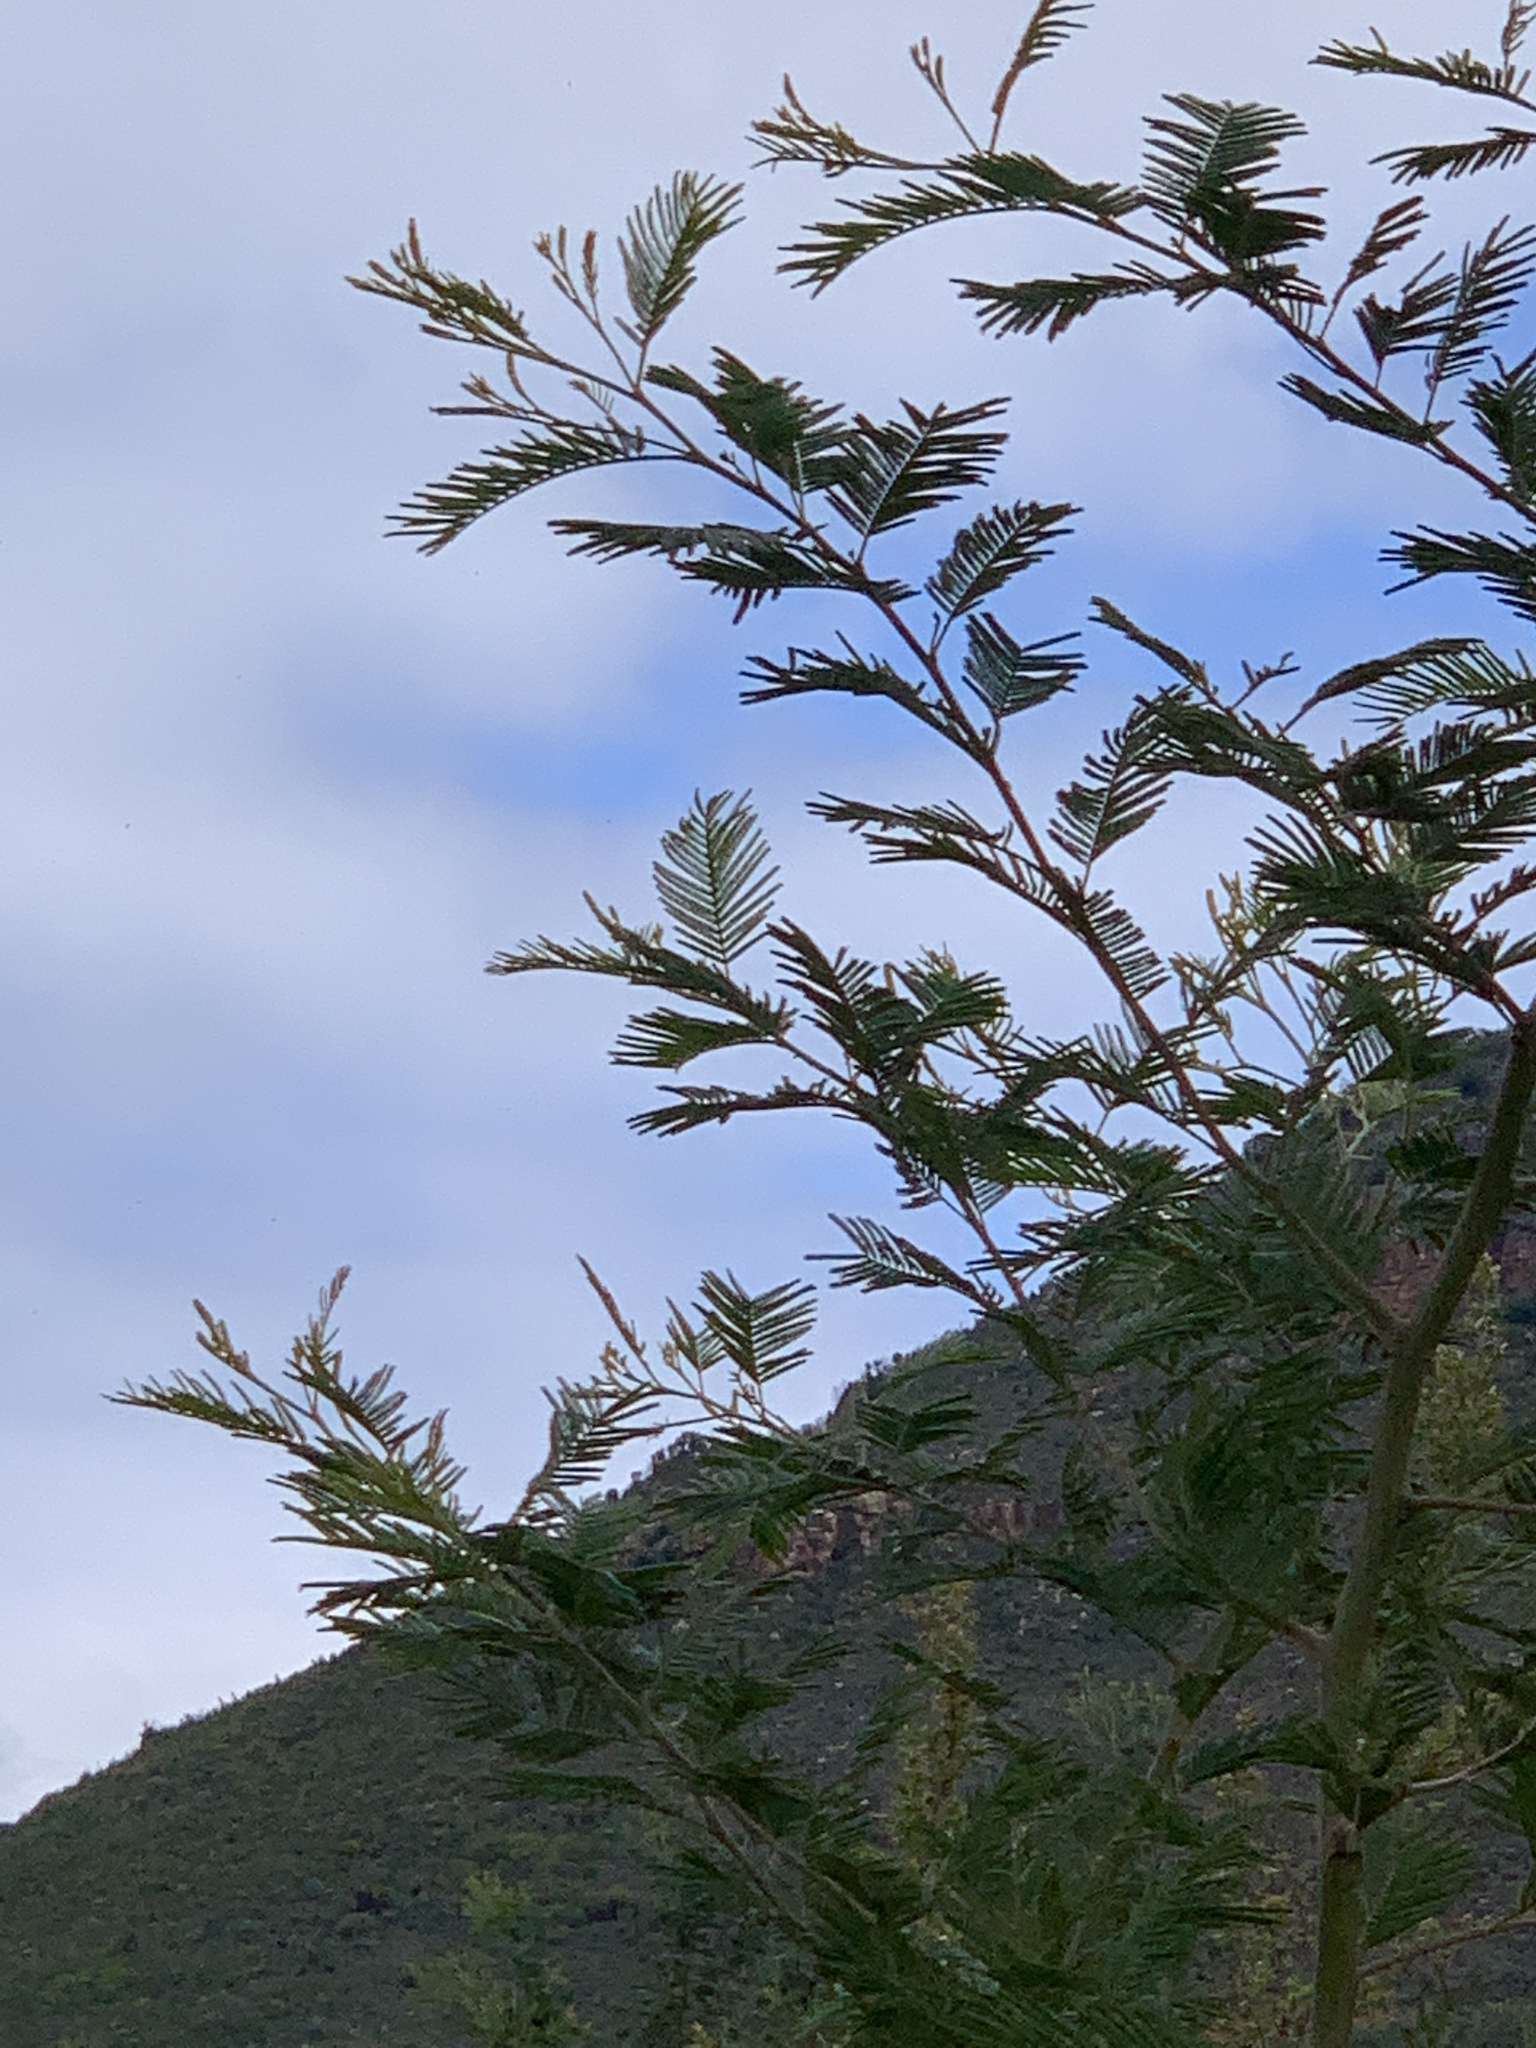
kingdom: Plantae
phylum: Tracheophyta
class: Magnoliopsida
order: Fabales
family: Fabaceae
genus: Acacia
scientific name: Acacia mearnsii
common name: Black wattle
